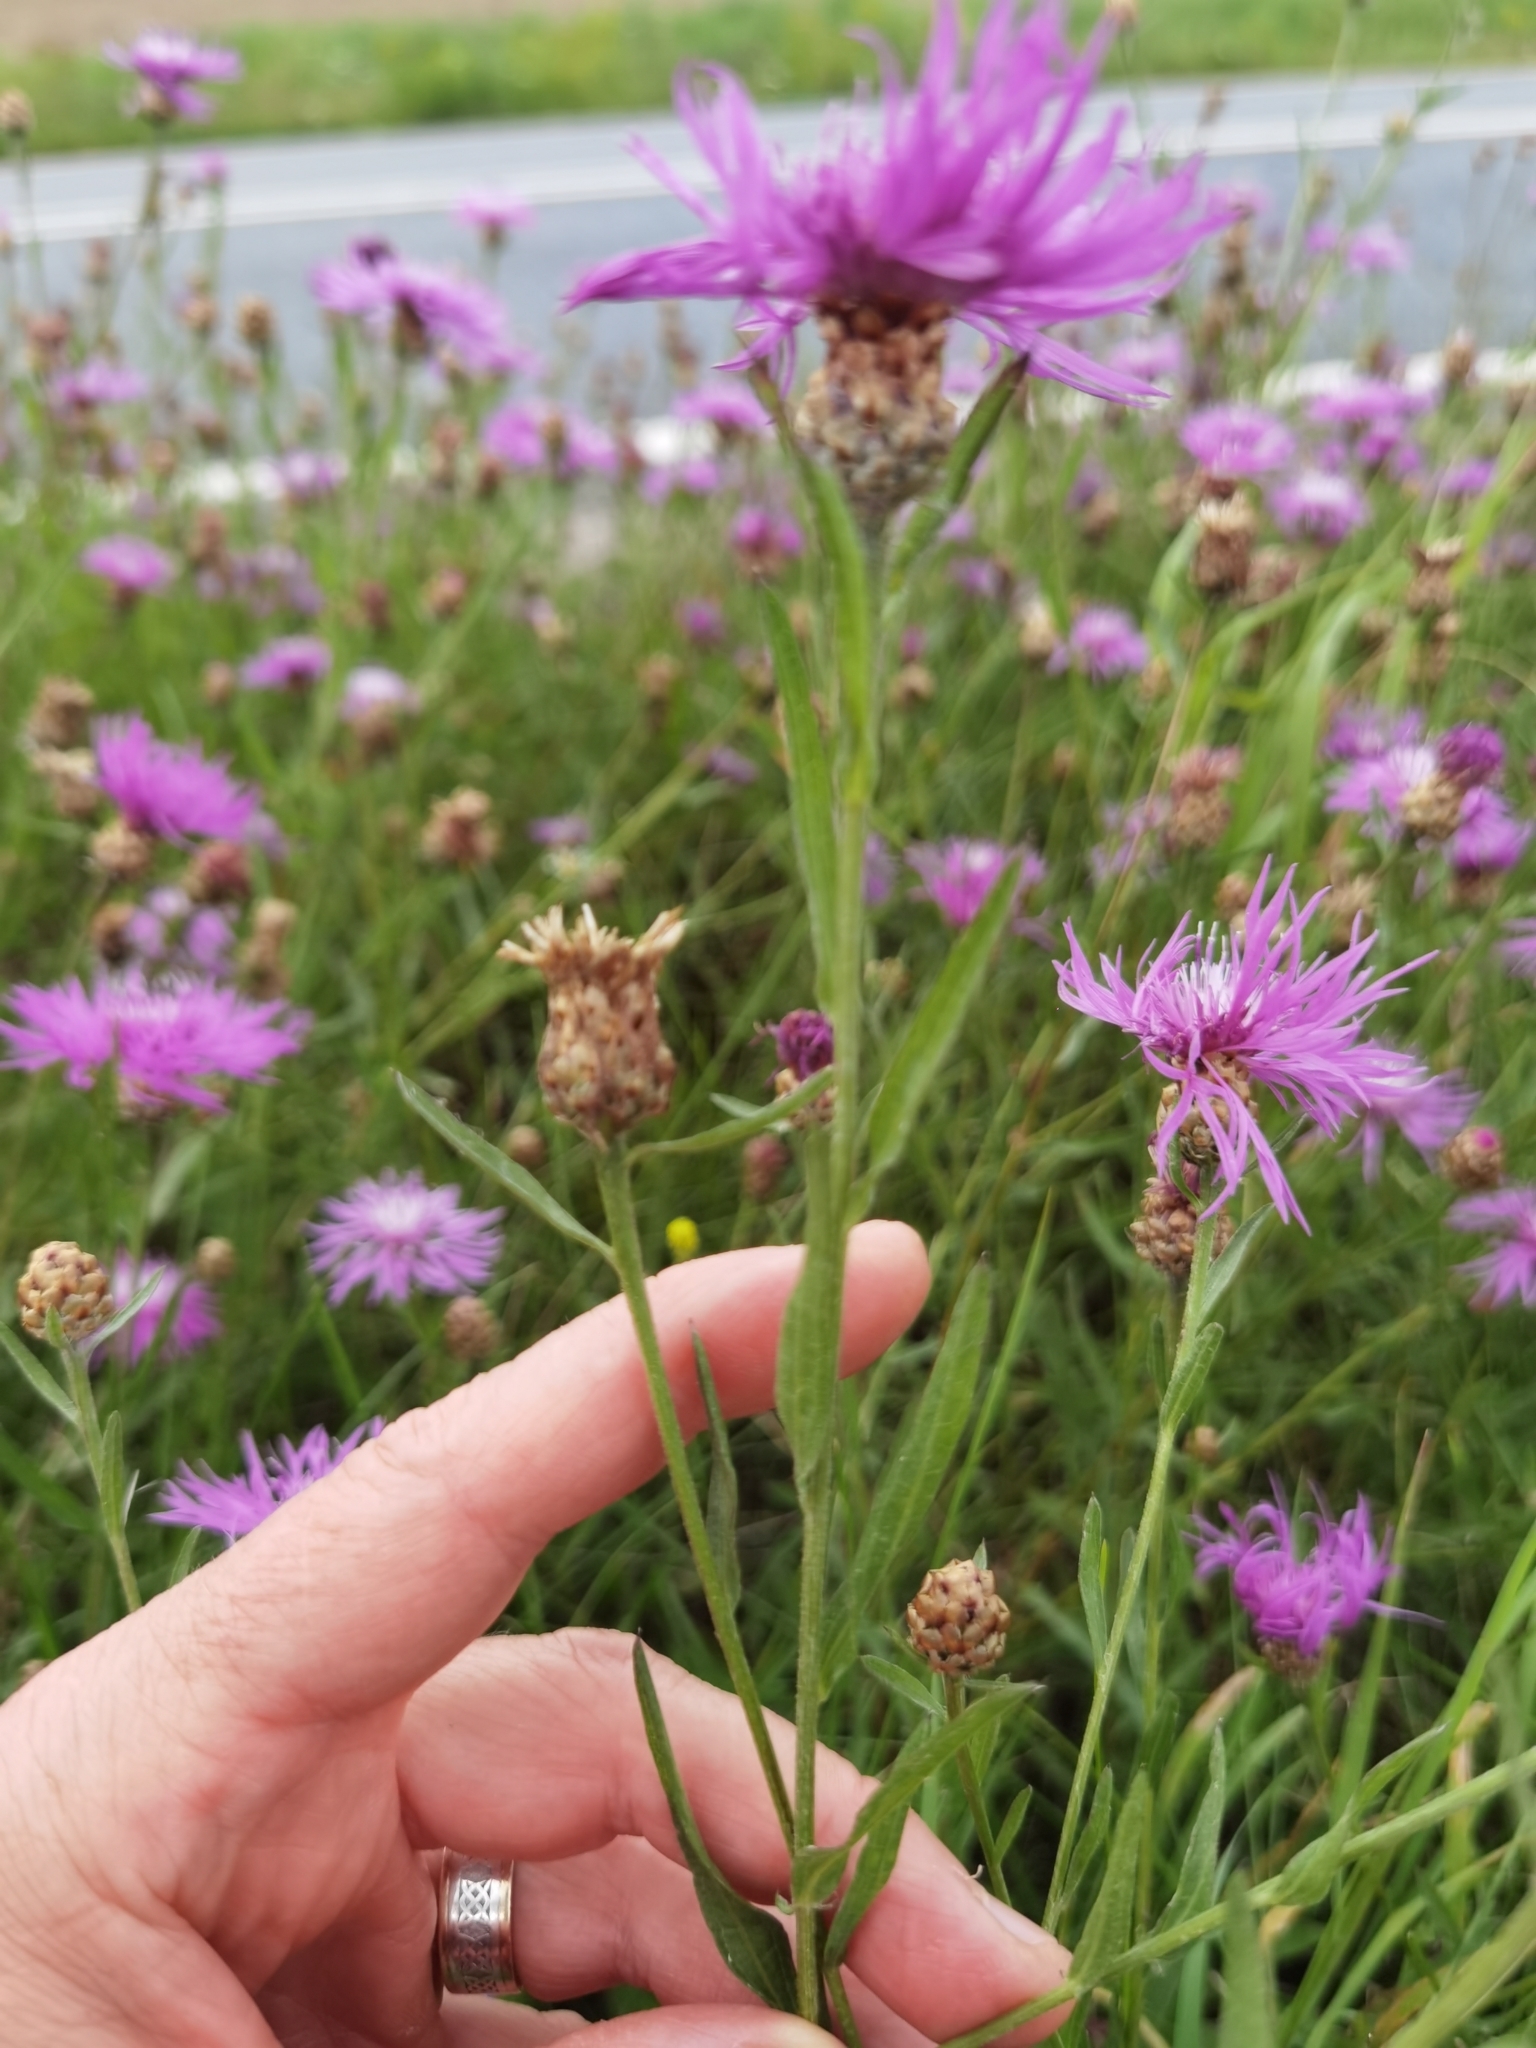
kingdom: Plantae
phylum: Tracheophyta
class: Magnoliopsida
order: Asterales
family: Asteraceae
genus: Centaurea
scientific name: Centaurea jacea
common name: Brown knapweed
